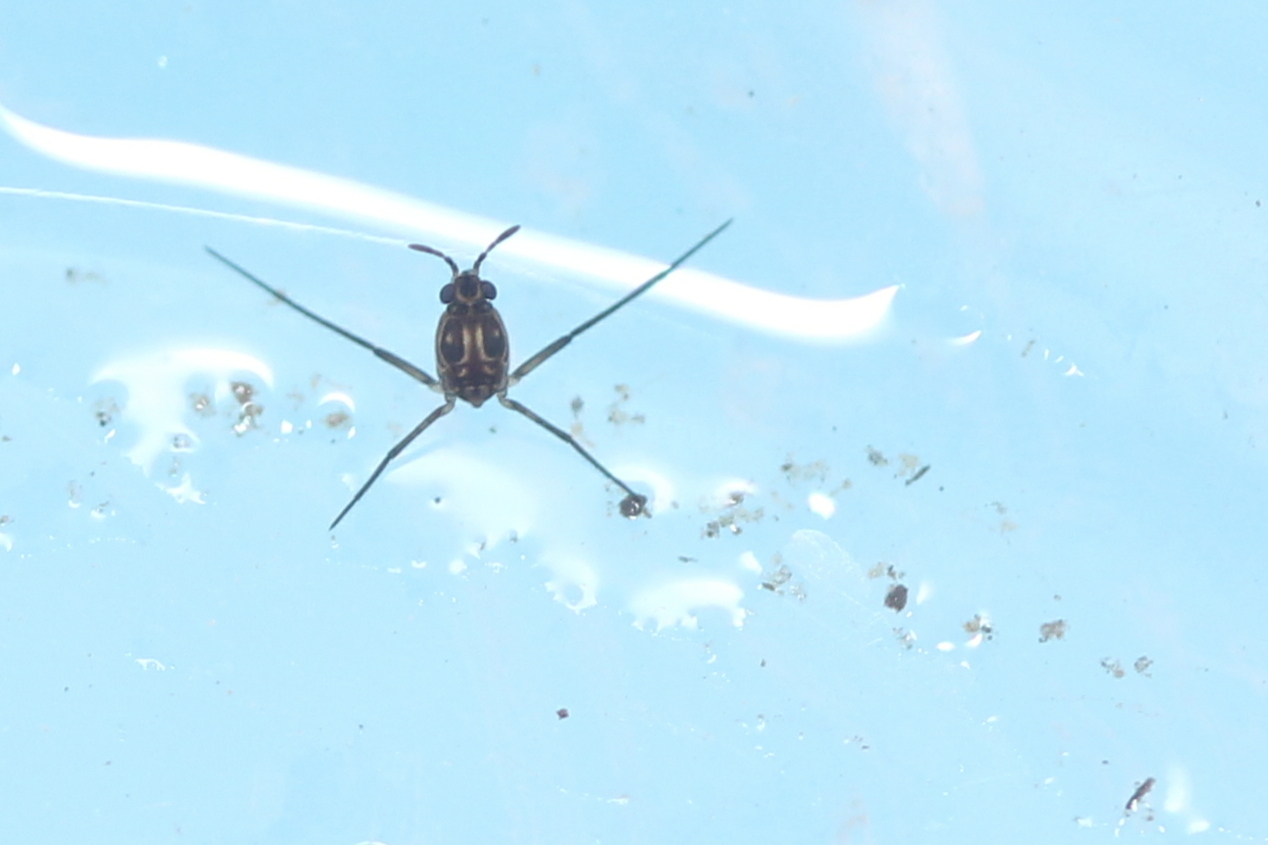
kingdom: Animalia
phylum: Arthropoda
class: Insecta
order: Hemiptera
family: Gerridae
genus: Trepobates
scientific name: Trepobates
